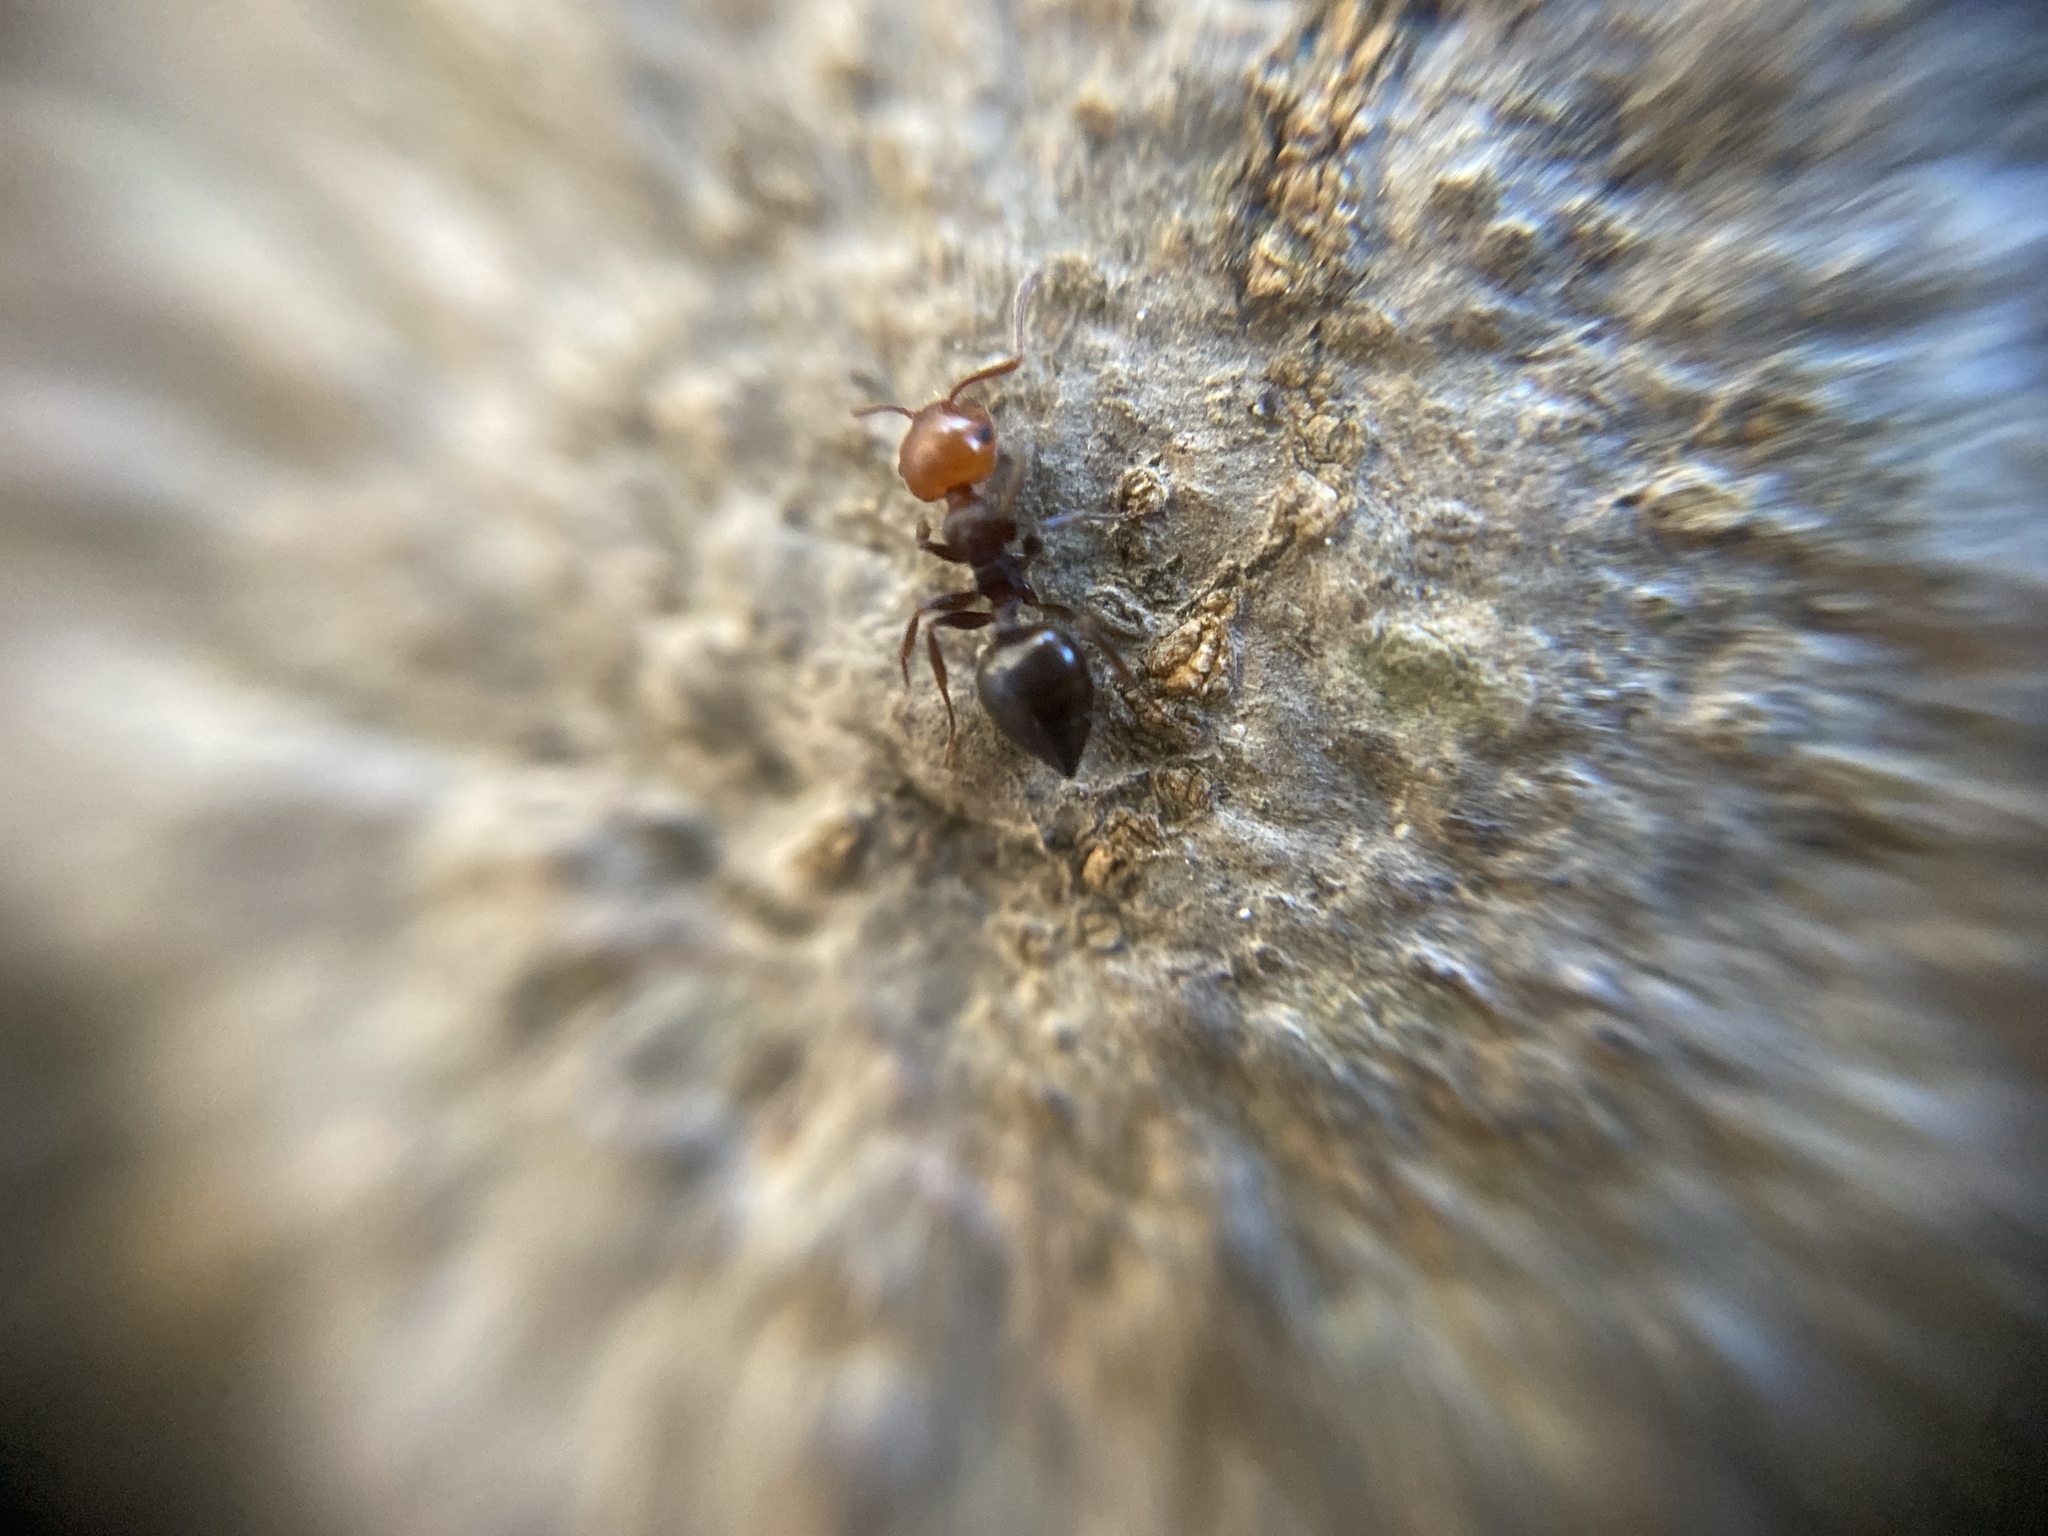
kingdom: Animalia
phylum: Arthropoda
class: Insecta
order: Hymenoptera
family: Formicidae
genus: Crematogaster
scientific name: Crematogaster scutellaris
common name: Fourmi du liège
